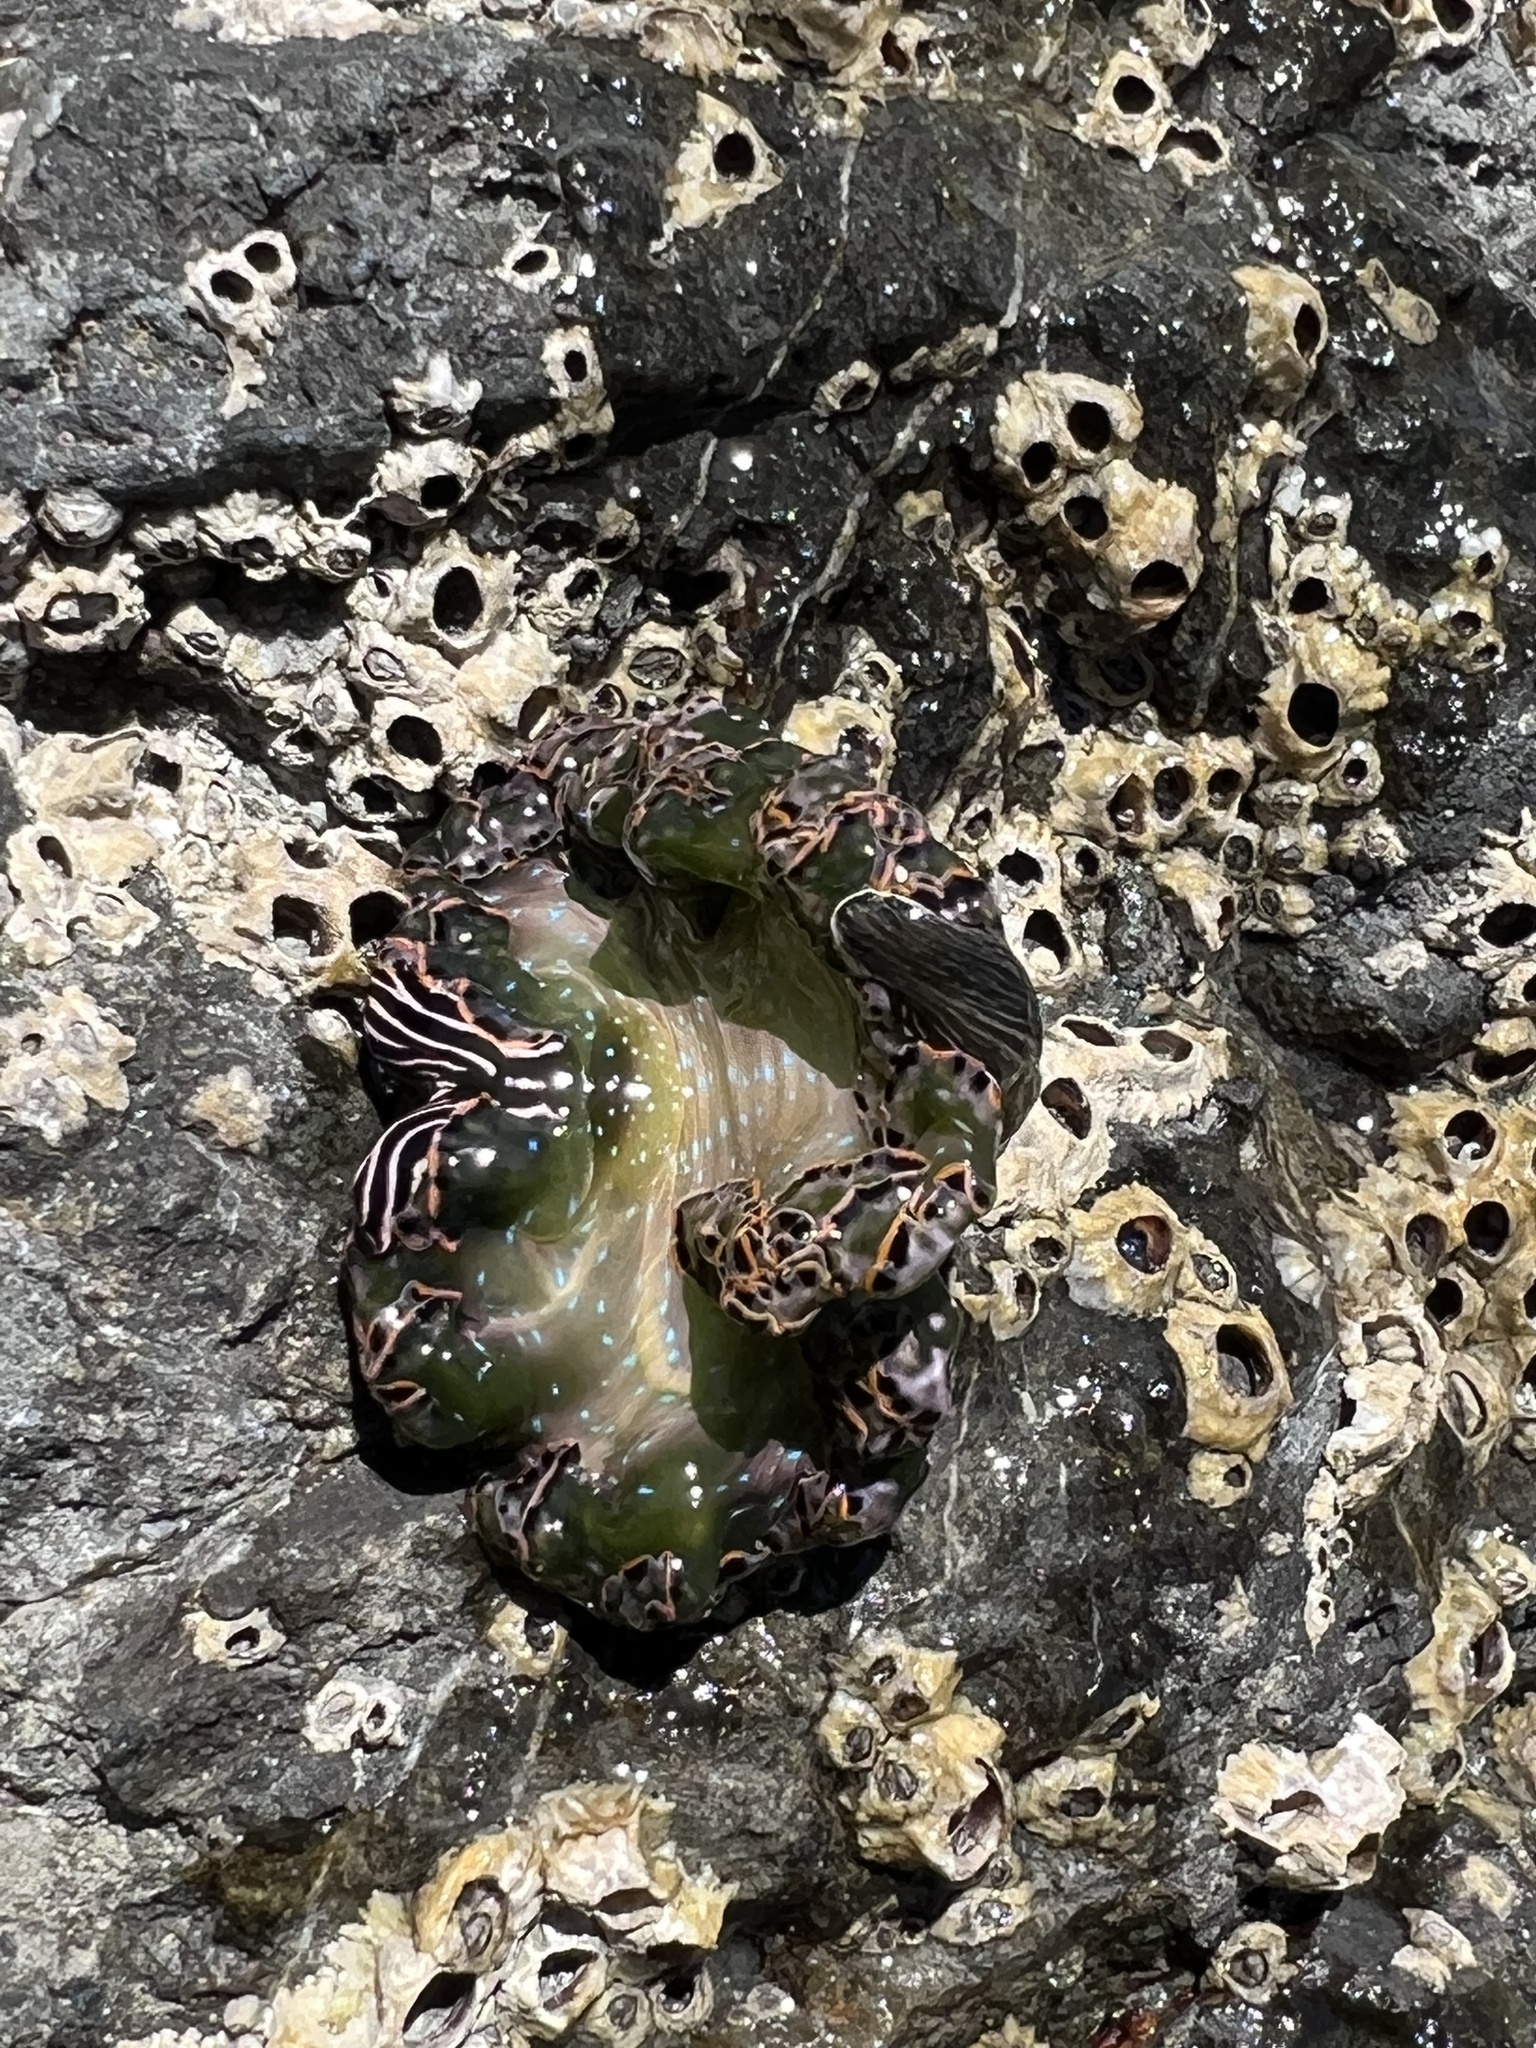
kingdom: Animalia
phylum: Mollusca
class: Gastropoda
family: Plakobranchidae
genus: Elysia
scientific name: Elysia diomedea
